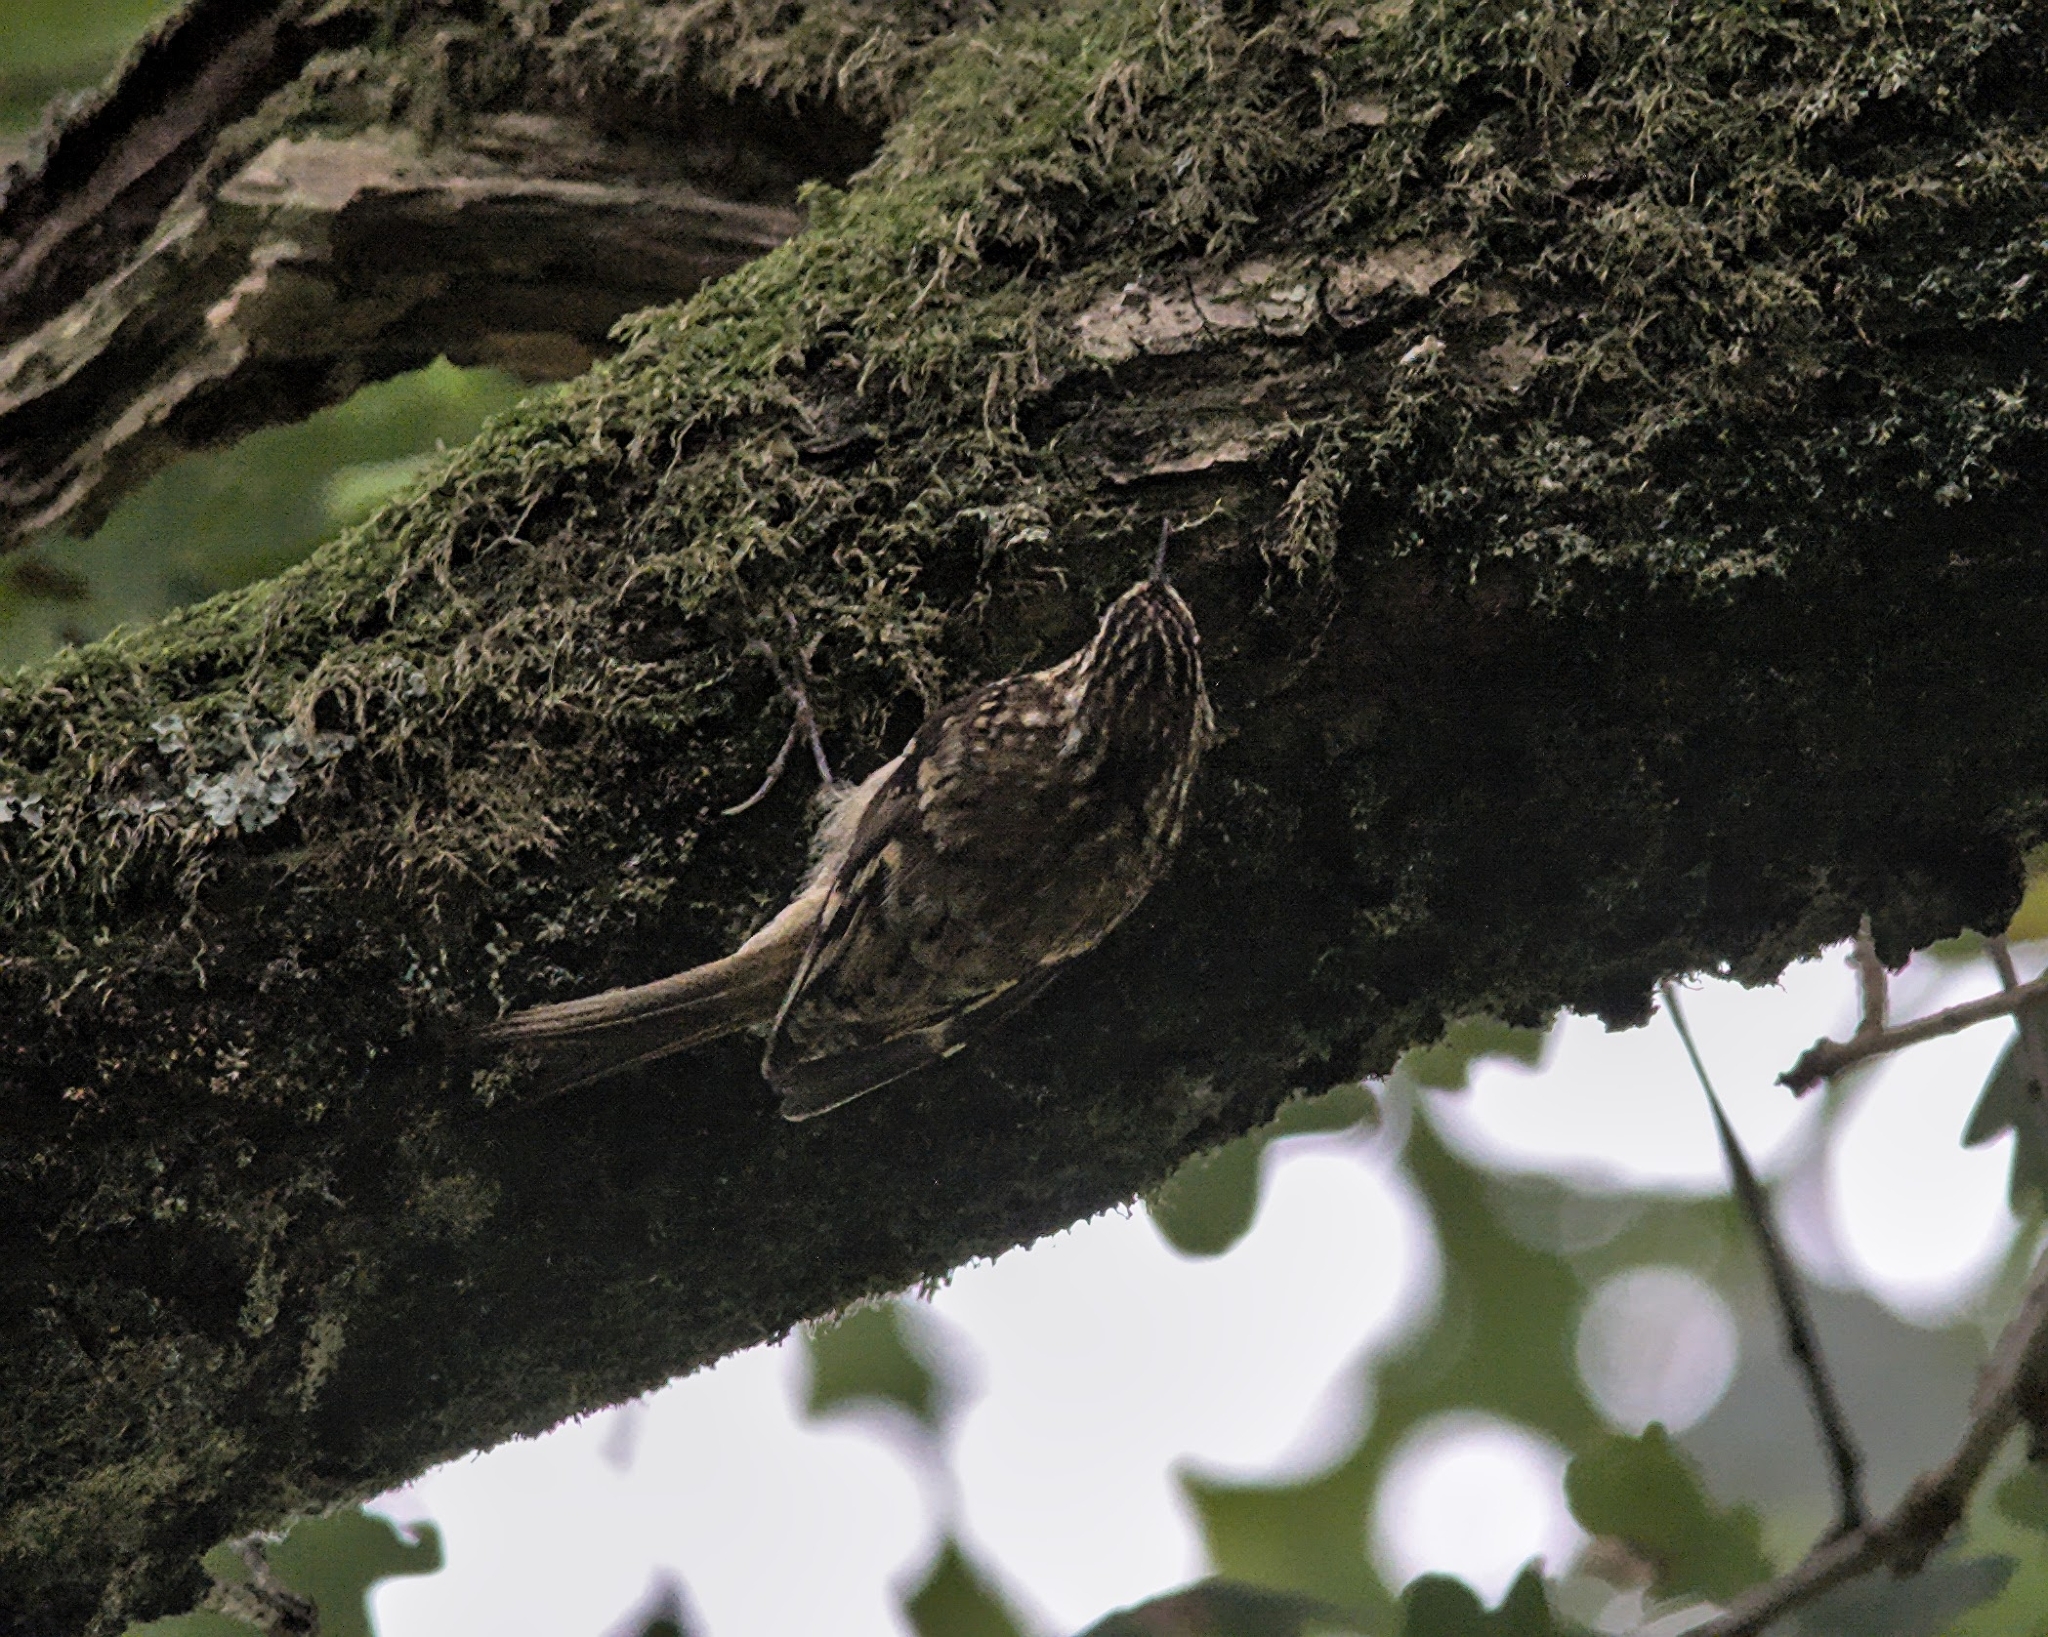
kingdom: Animalia
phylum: Chordata
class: Aves
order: Passeriformes
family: Certhiidae
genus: Certhia
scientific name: Certhia familiaris
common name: Eurasian treecreeper
